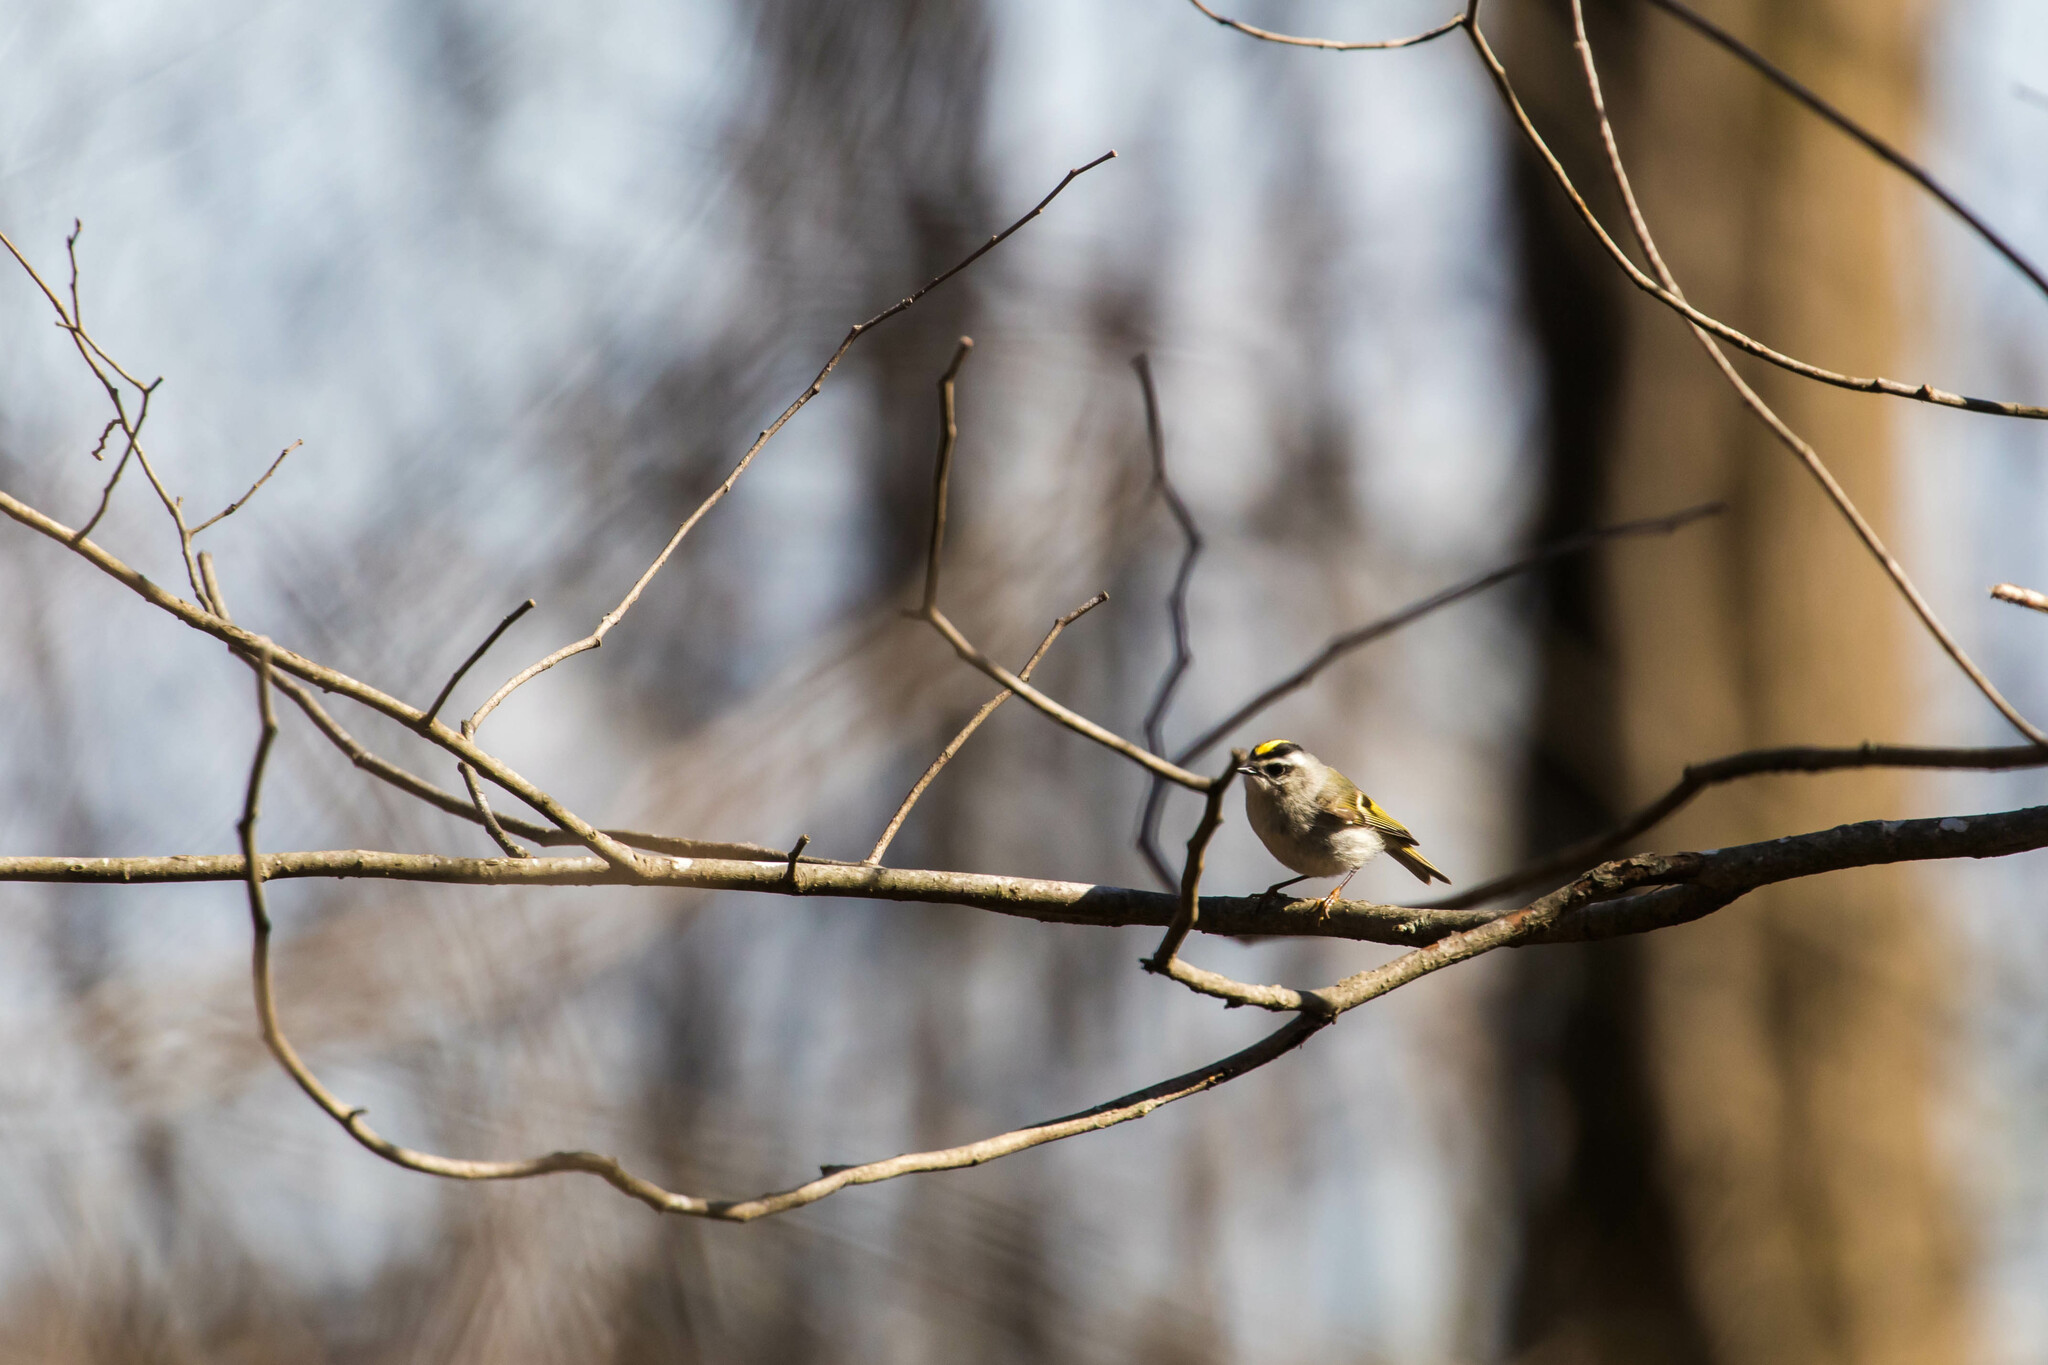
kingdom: Animalia
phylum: Chordata
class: Aves
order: Passeriformes
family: Regulidae
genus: Regulus
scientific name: Regulus satrapa
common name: Golden-crowned kinglet
